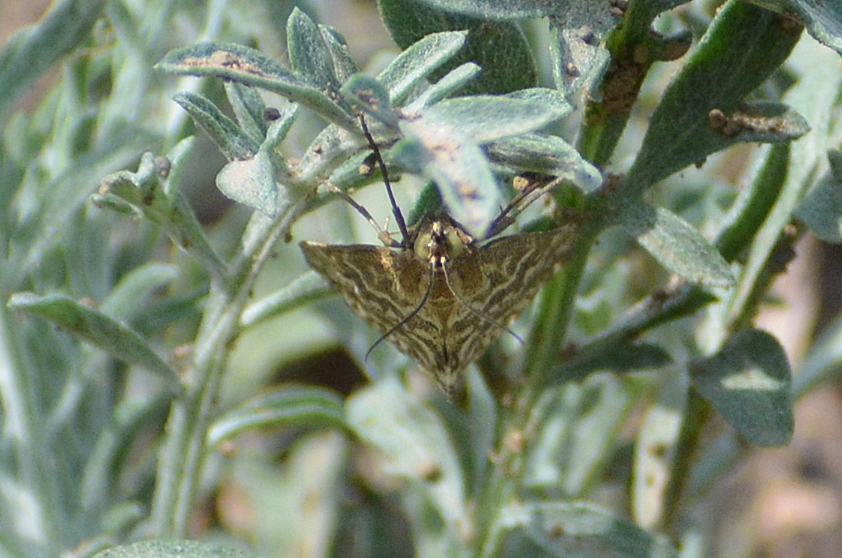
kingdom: Animalia
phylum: Arthropoda
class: Insecta
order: Lepidoptera
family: Crambidae
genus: Evergestis
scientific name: Evergestis frumentalis
